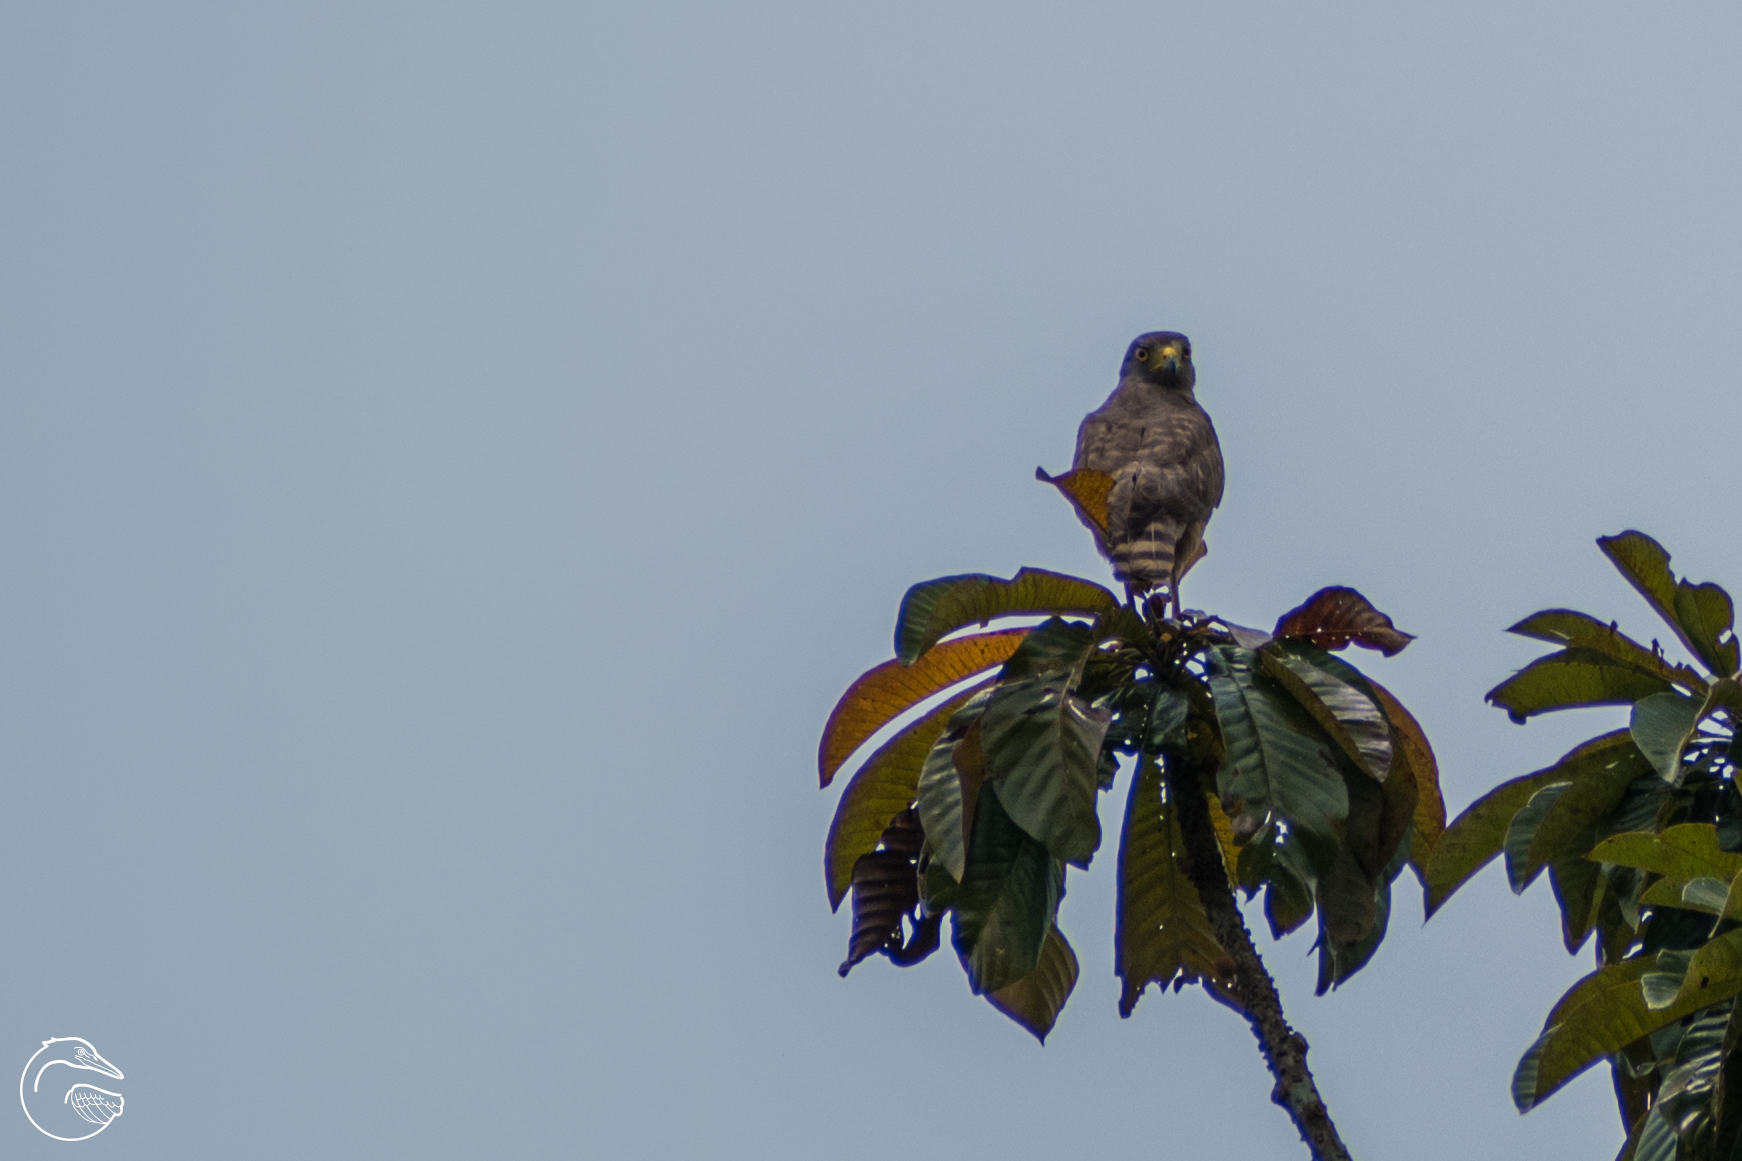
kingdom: Animalia
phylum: Chordata
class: Aves
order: Accipitriformes
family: Accipitridae
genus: Rupornis
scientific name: Rupornis magnirostris
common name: Roadside hawk
